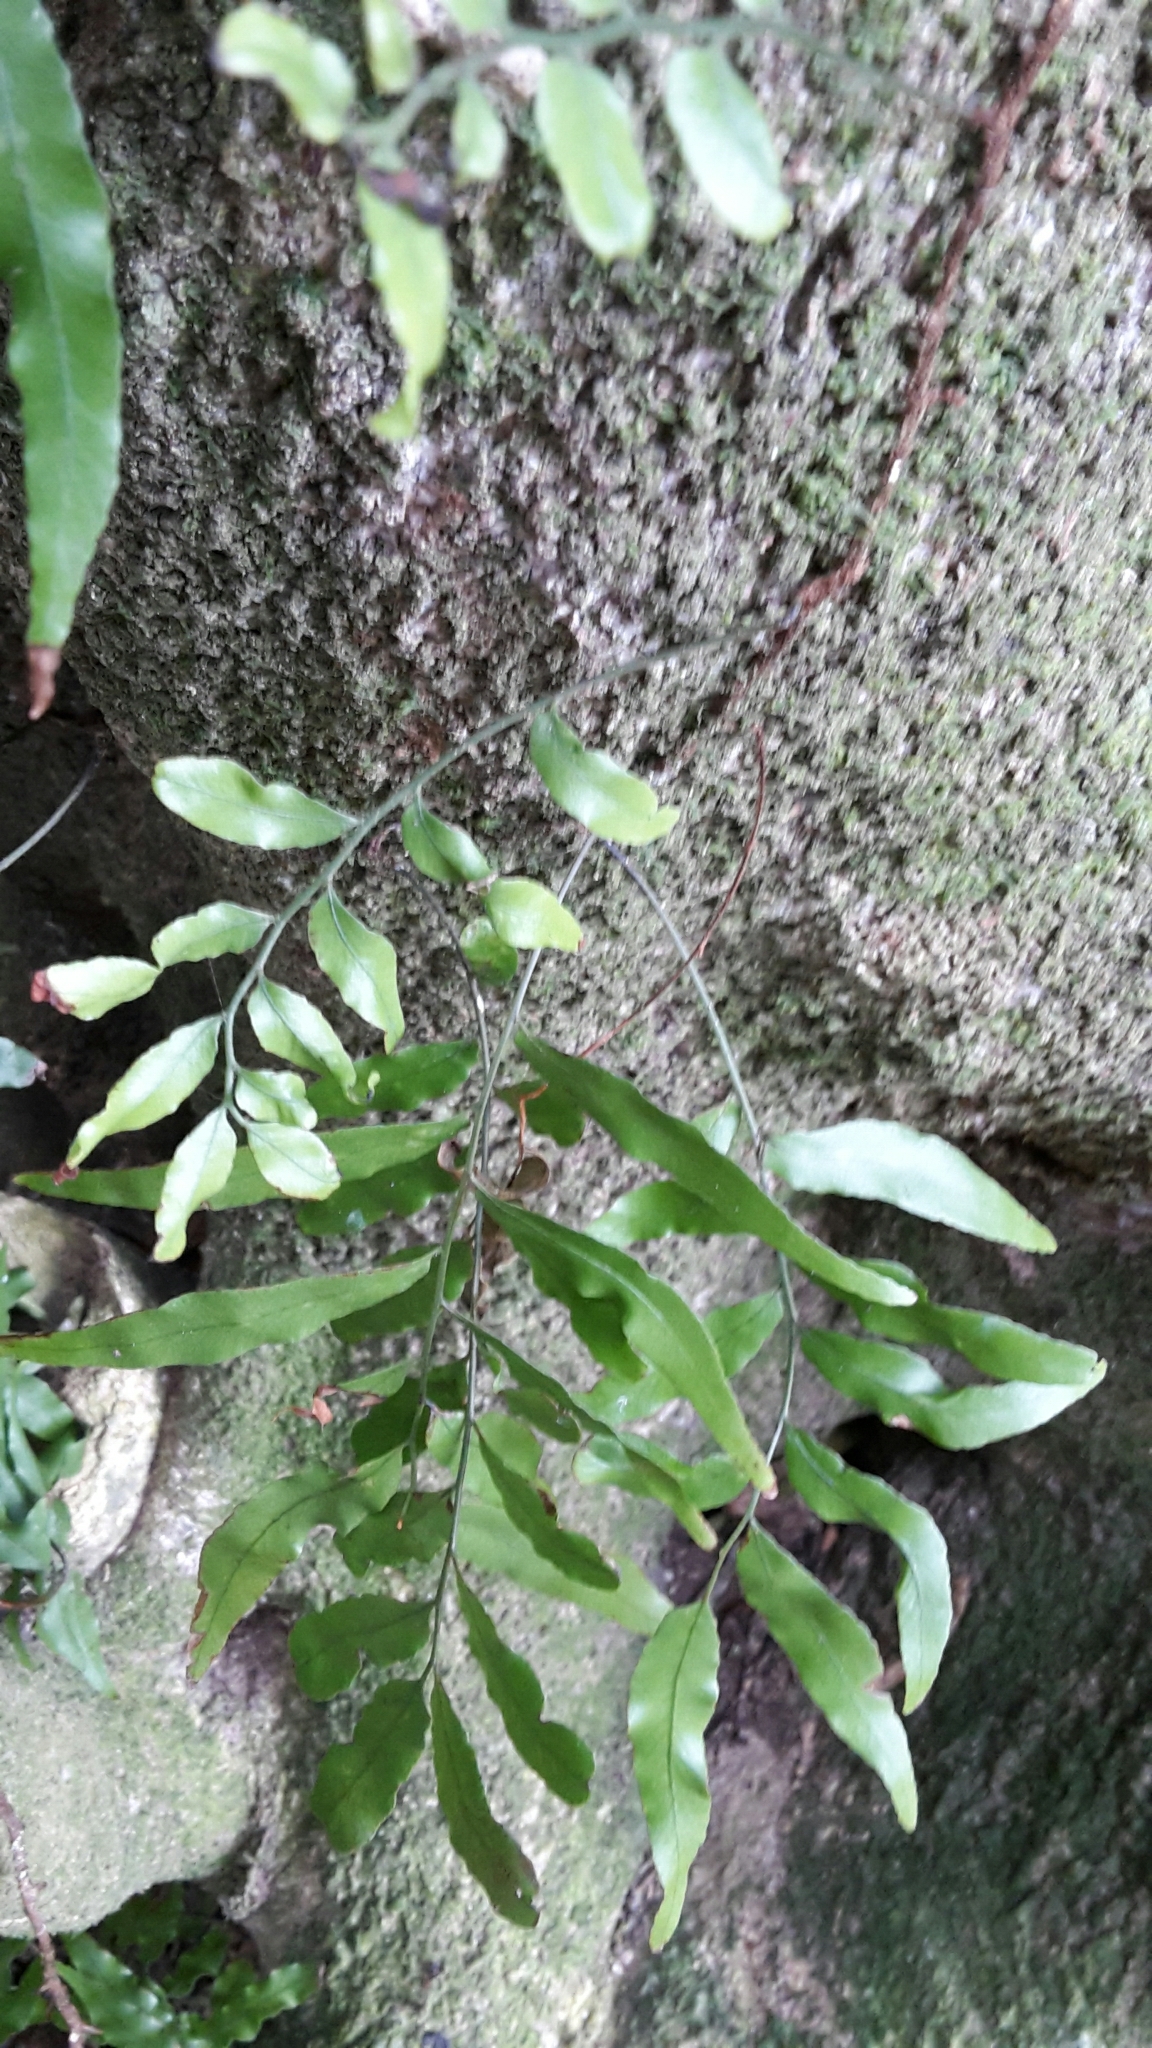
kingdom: Plantae
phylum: Tracheophyta
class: Polypodiopsida
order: Polypodiales
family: Tectariaceae
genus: Arthropteris
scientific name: Arthropteris tenella
